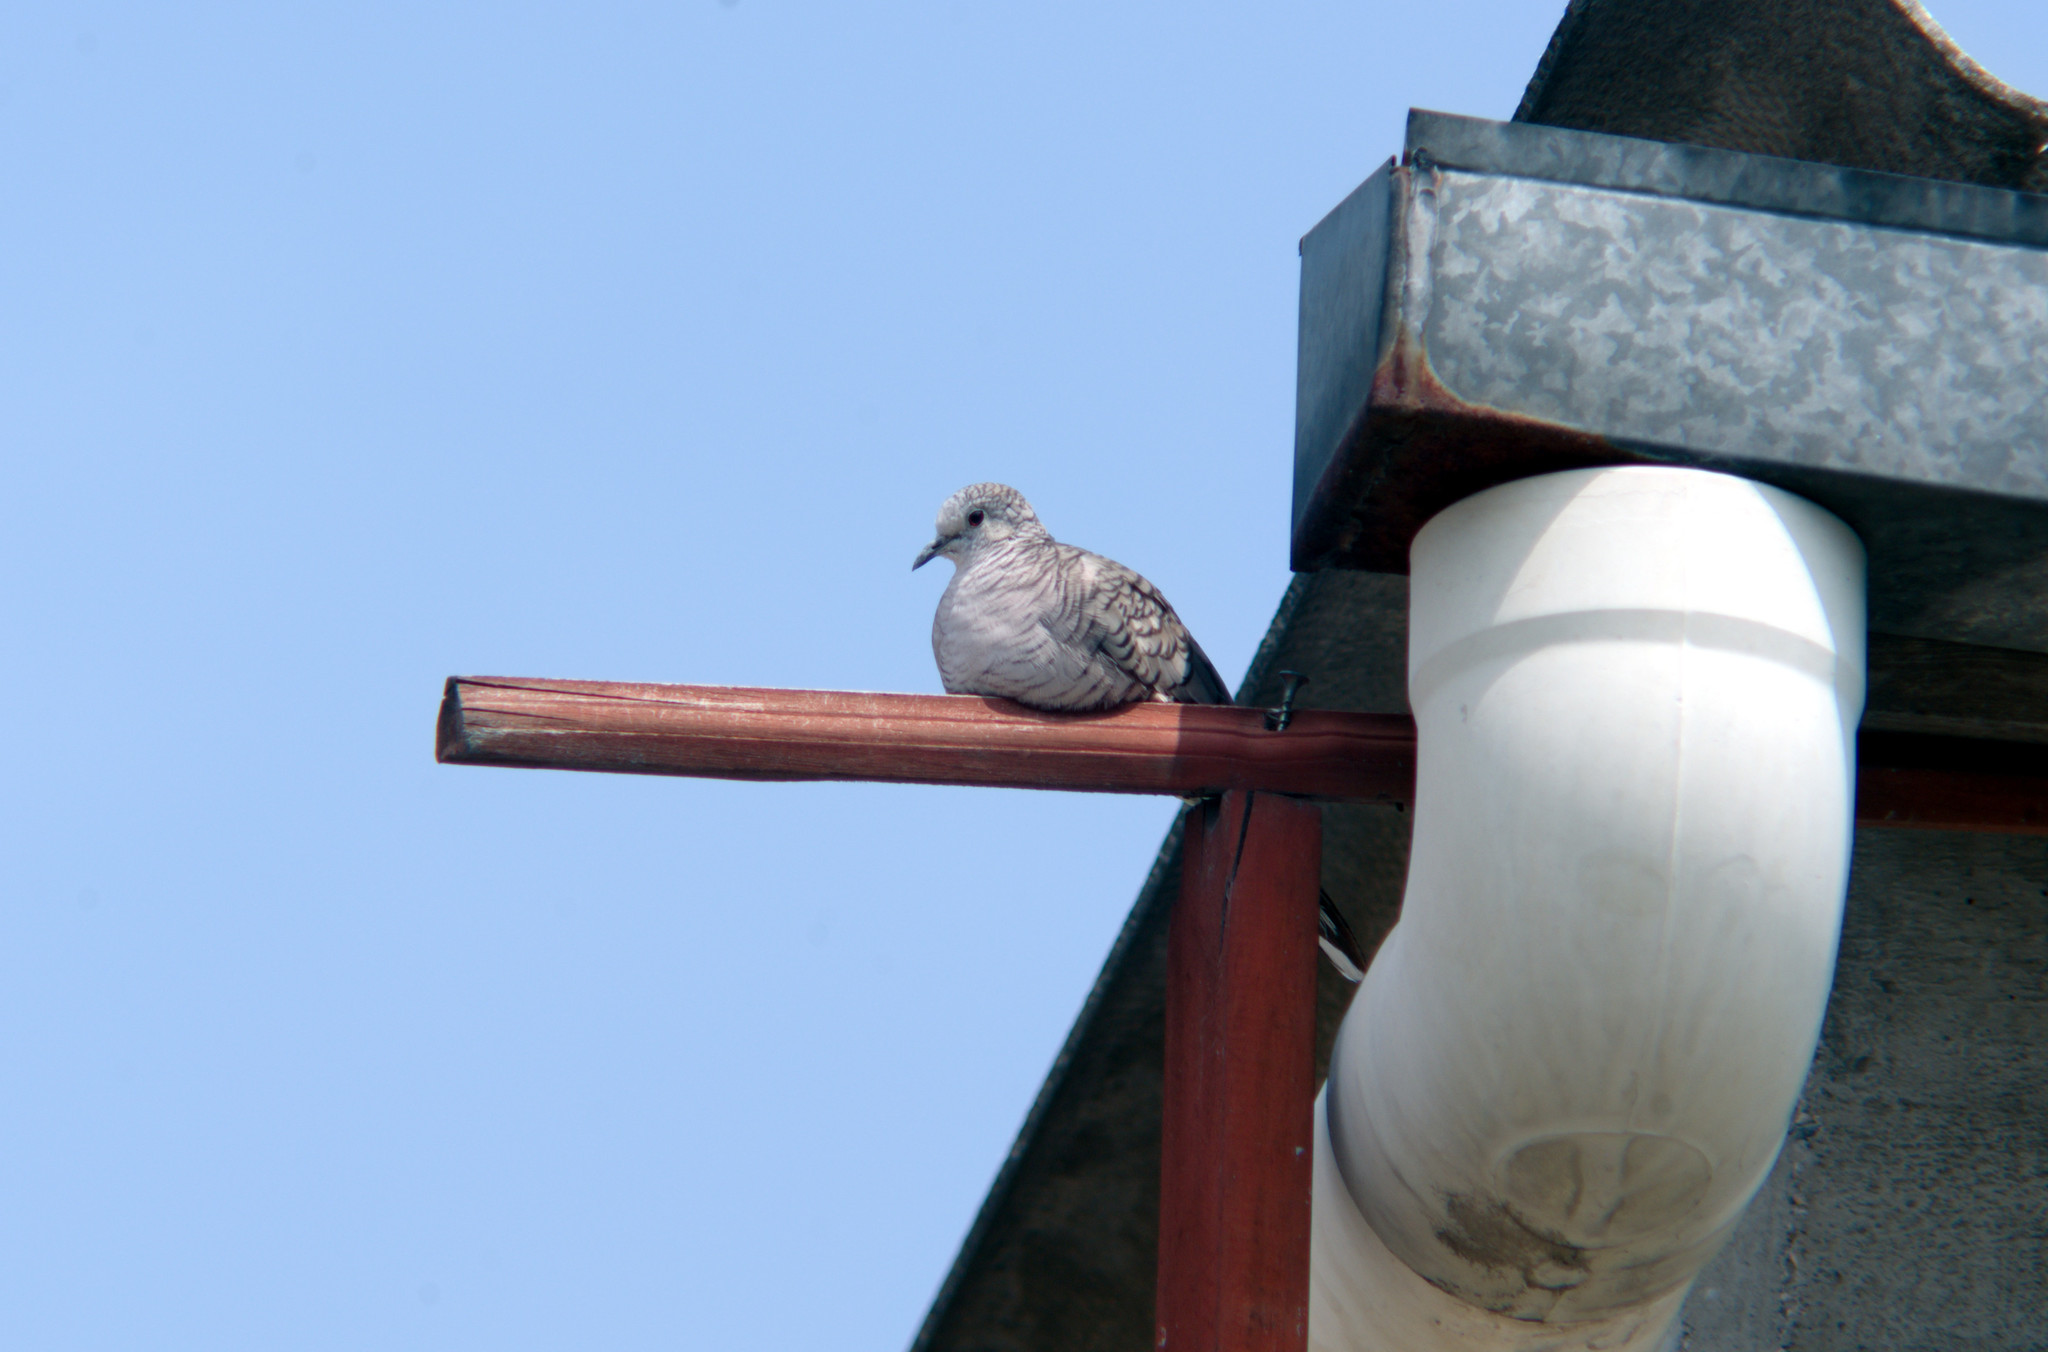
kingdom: Animalia
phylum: Chordata
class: Aves
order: Columbiformes
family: Columbidae
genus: Columbina
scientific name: Columbina inca
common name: Inca dove
